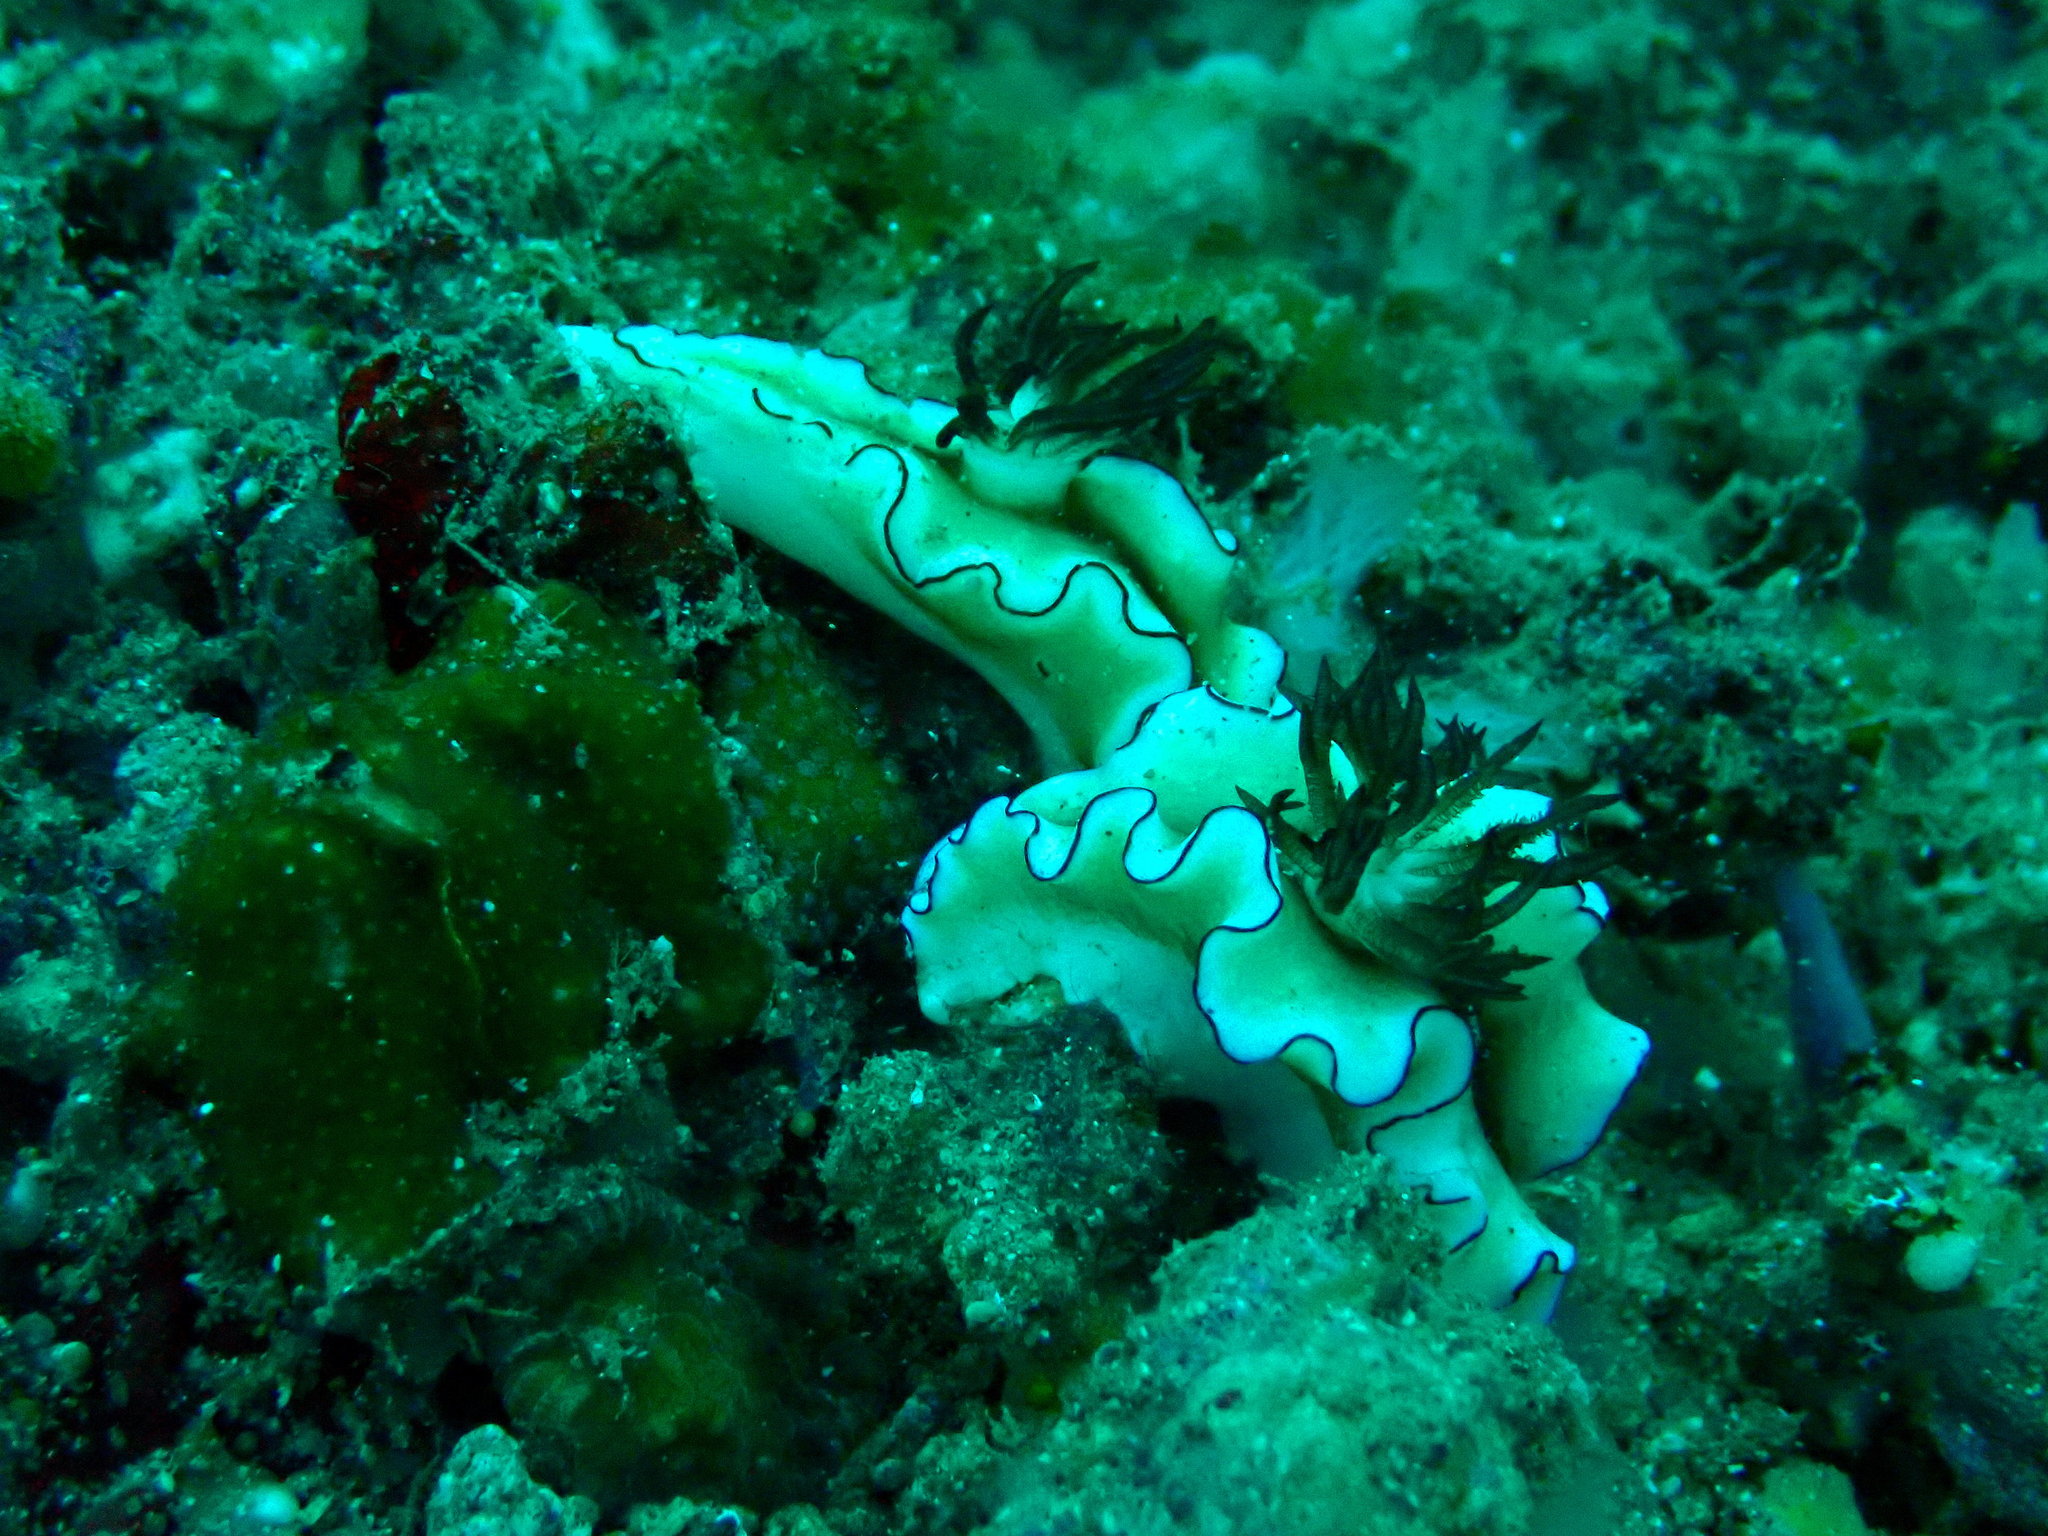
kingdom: Animalia
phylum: Mollusca
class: Gastropoda
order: Nudibranchia
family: Chromodorididae
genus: Doriprismatica
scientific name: Doriprismatica atromarginata
